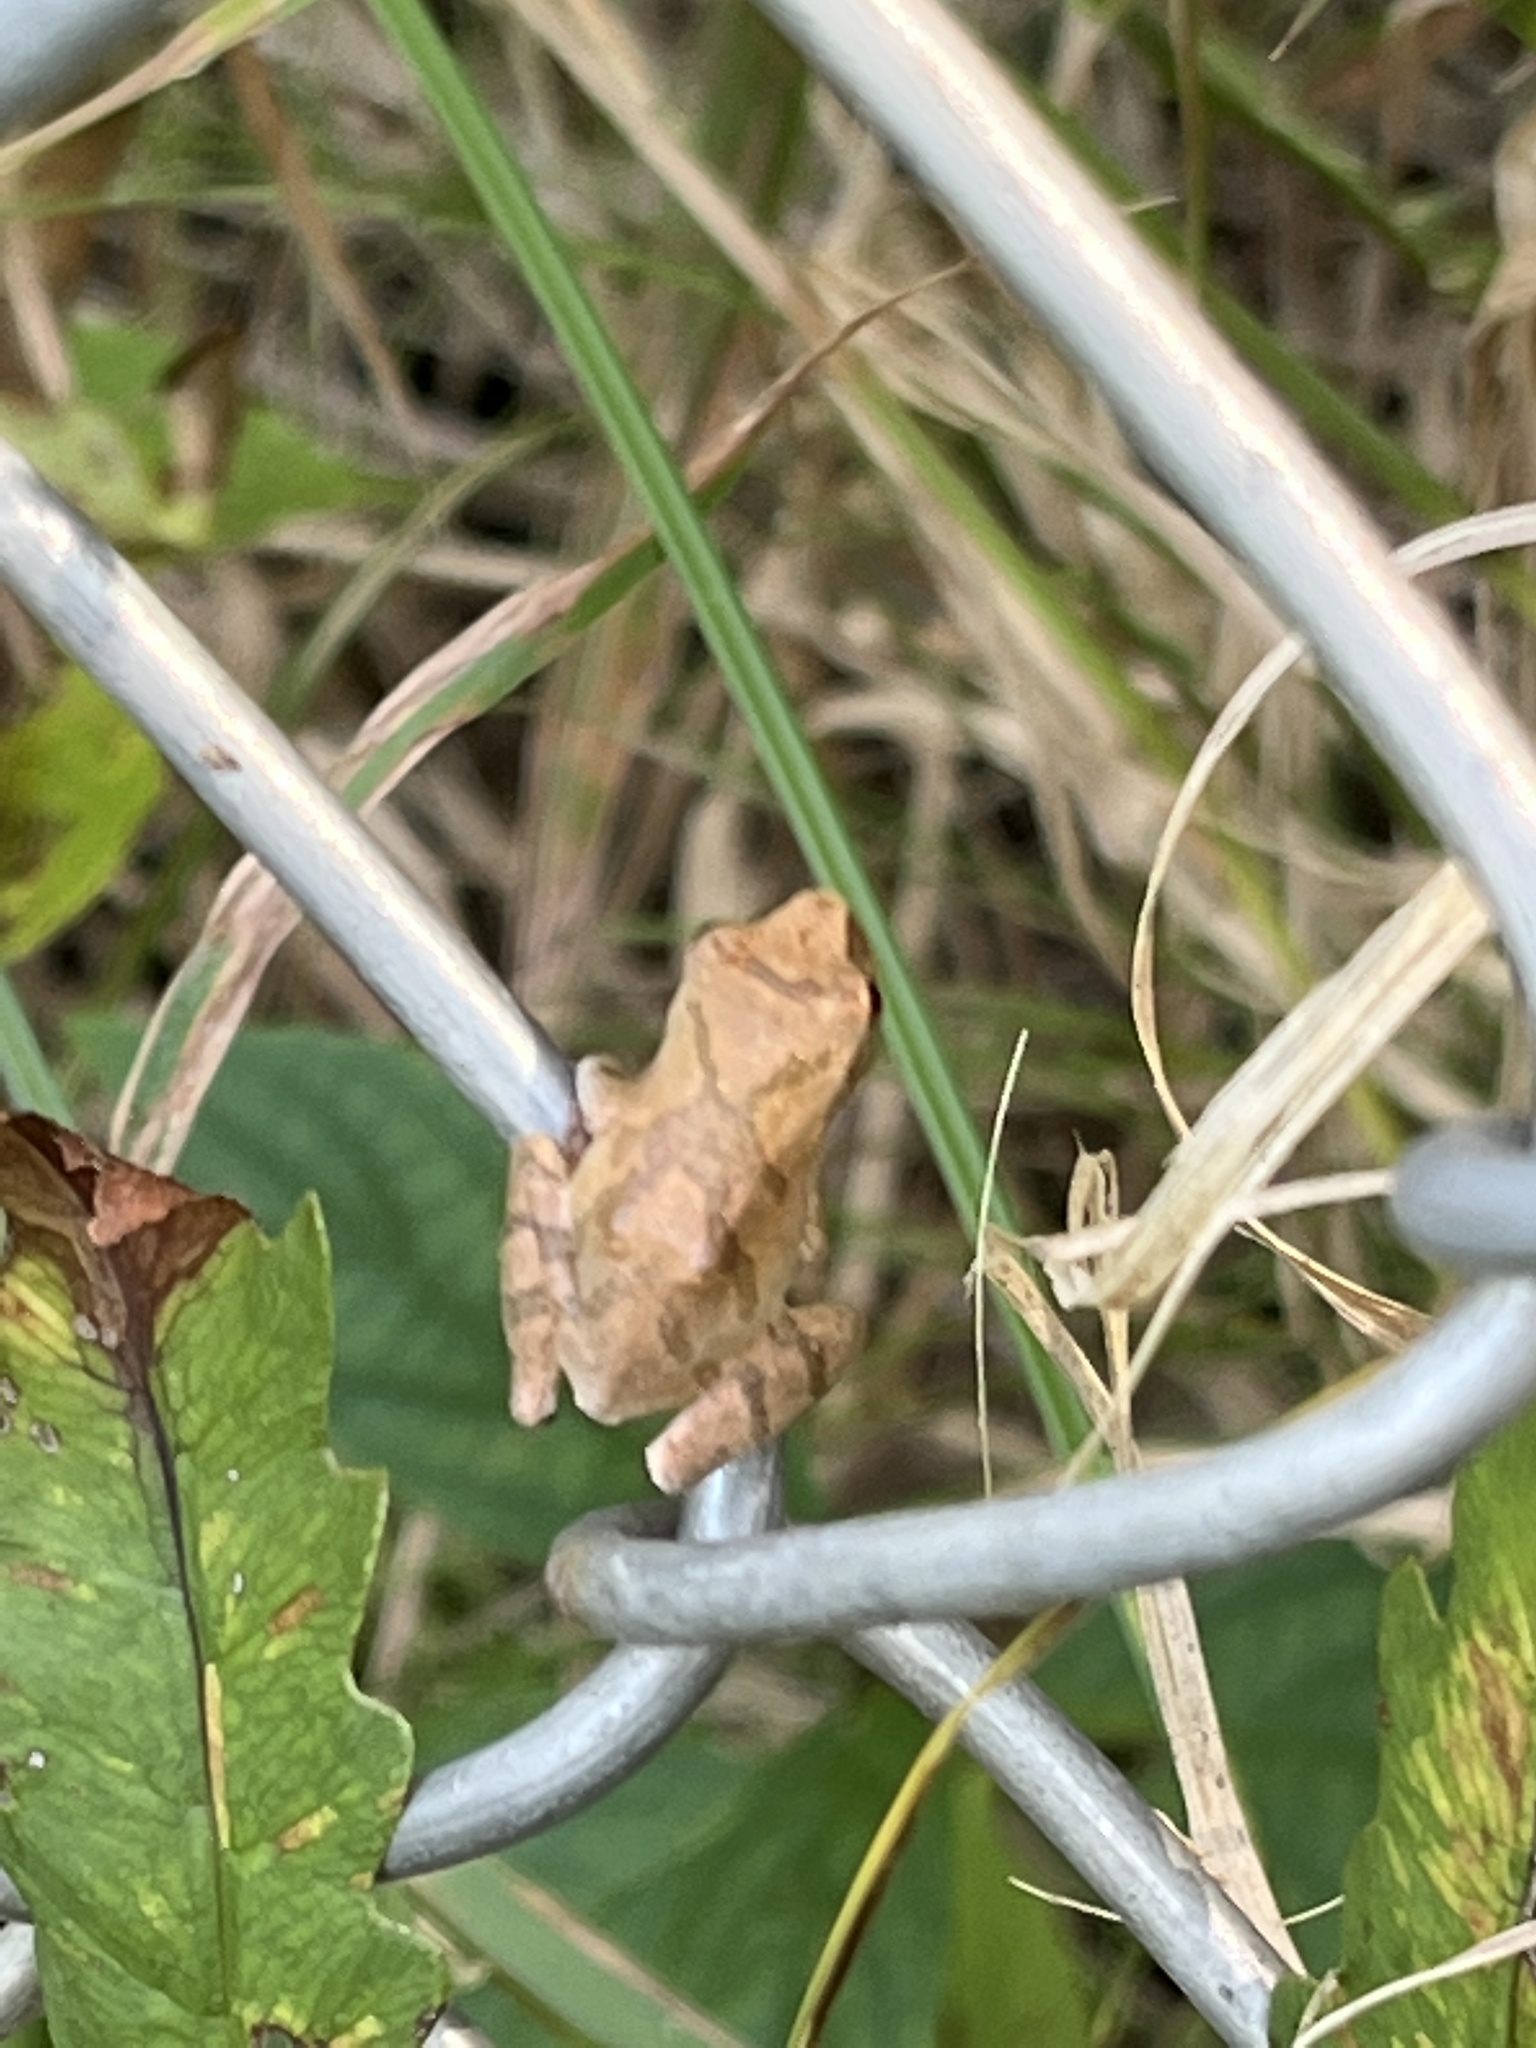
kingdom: Animalia
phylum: Chordata
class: Amphibia
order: Anura
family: Hylidae
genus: Pseudacris
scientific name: Pseudacris crucifer
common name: Spring peeper
